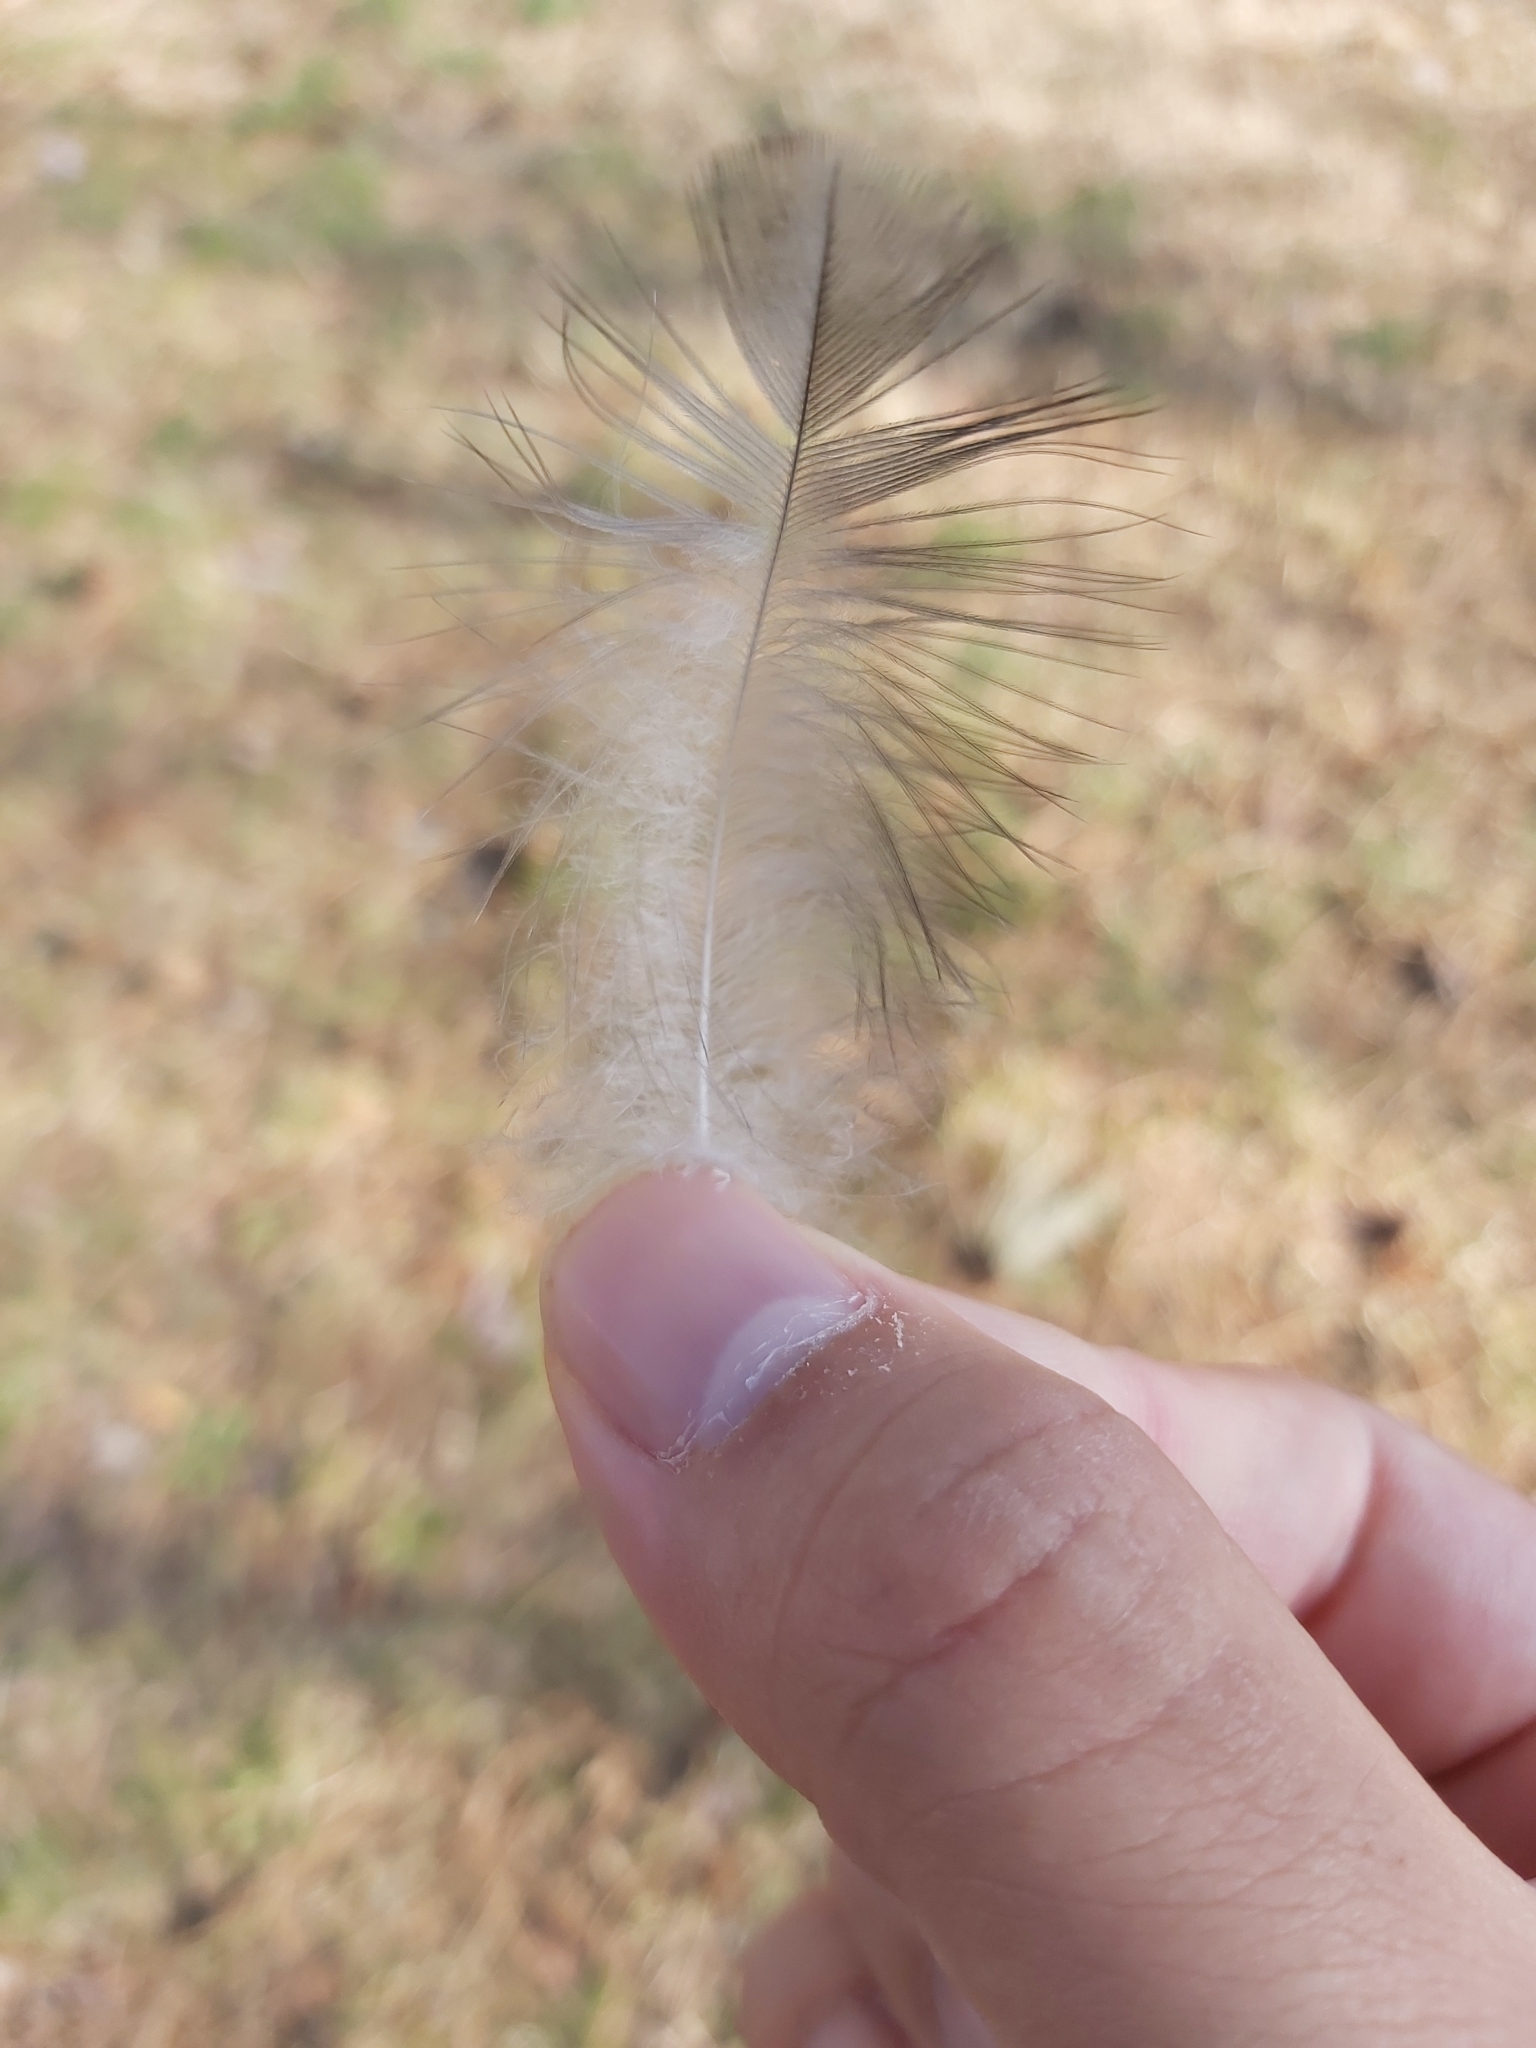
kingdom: Animalia
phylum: Chordata
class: Aves
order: Passeriformes
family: Corvidae
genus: Corvus
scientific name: Corvus cornix
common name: Hooded crow
